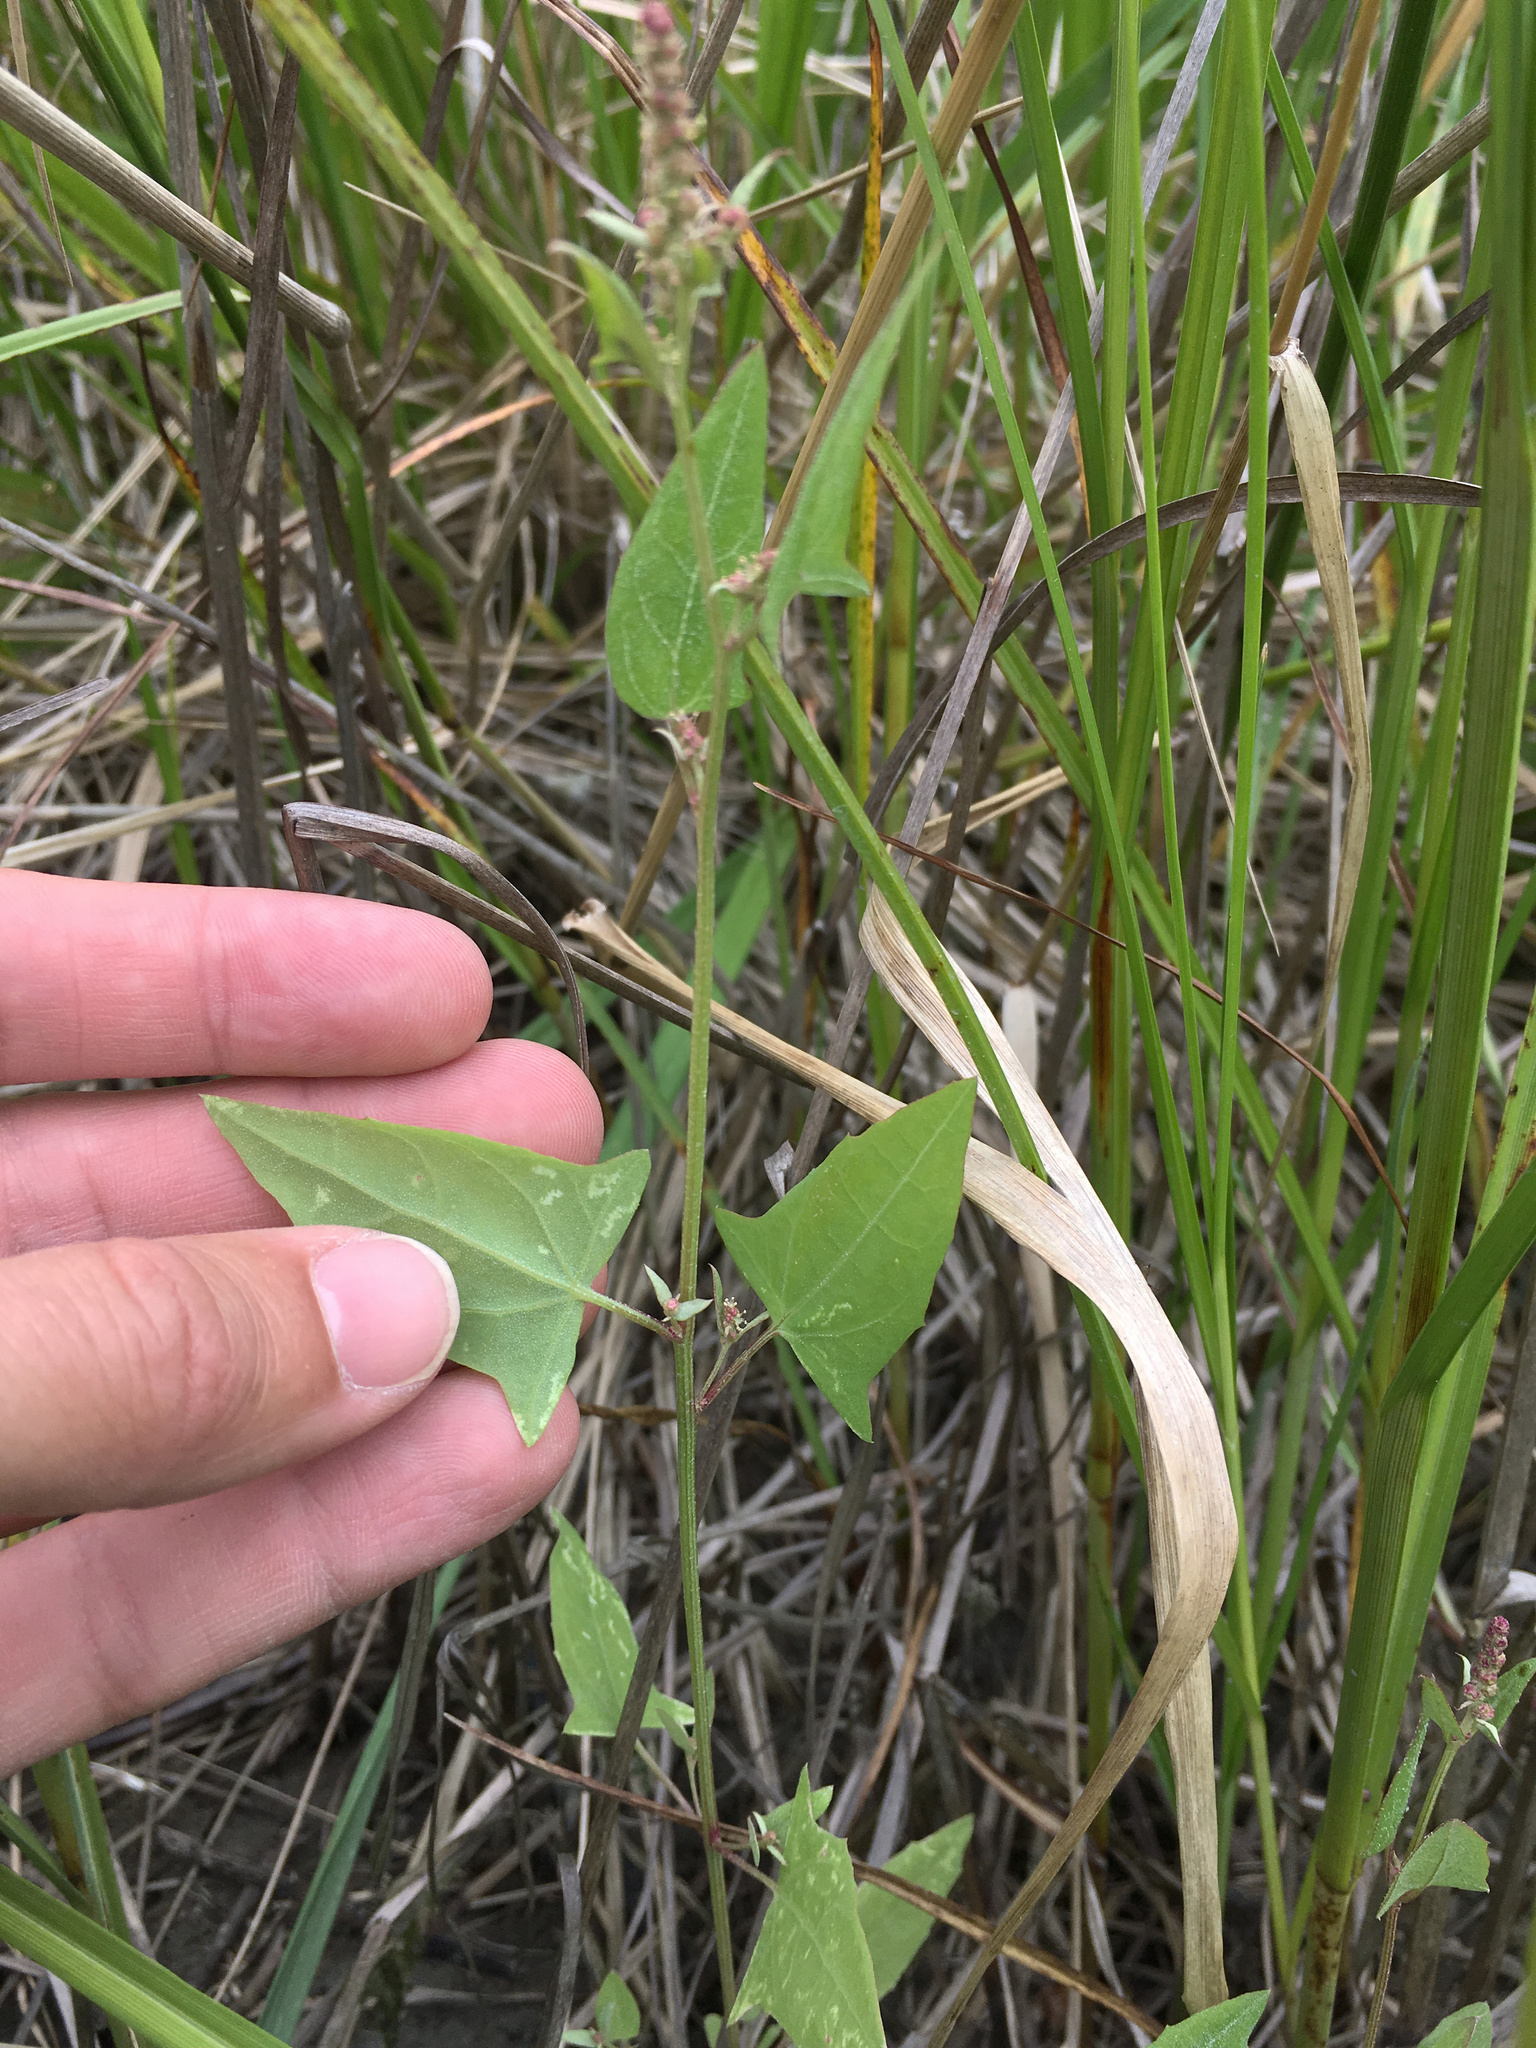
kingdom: Plantae
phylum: Tracheophyta
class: Magnoliopsida
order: Caryophyllales
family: Amaranthaceae
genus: Atriplex
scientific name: Atriplex prostrata
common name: Spear-leaved orache
